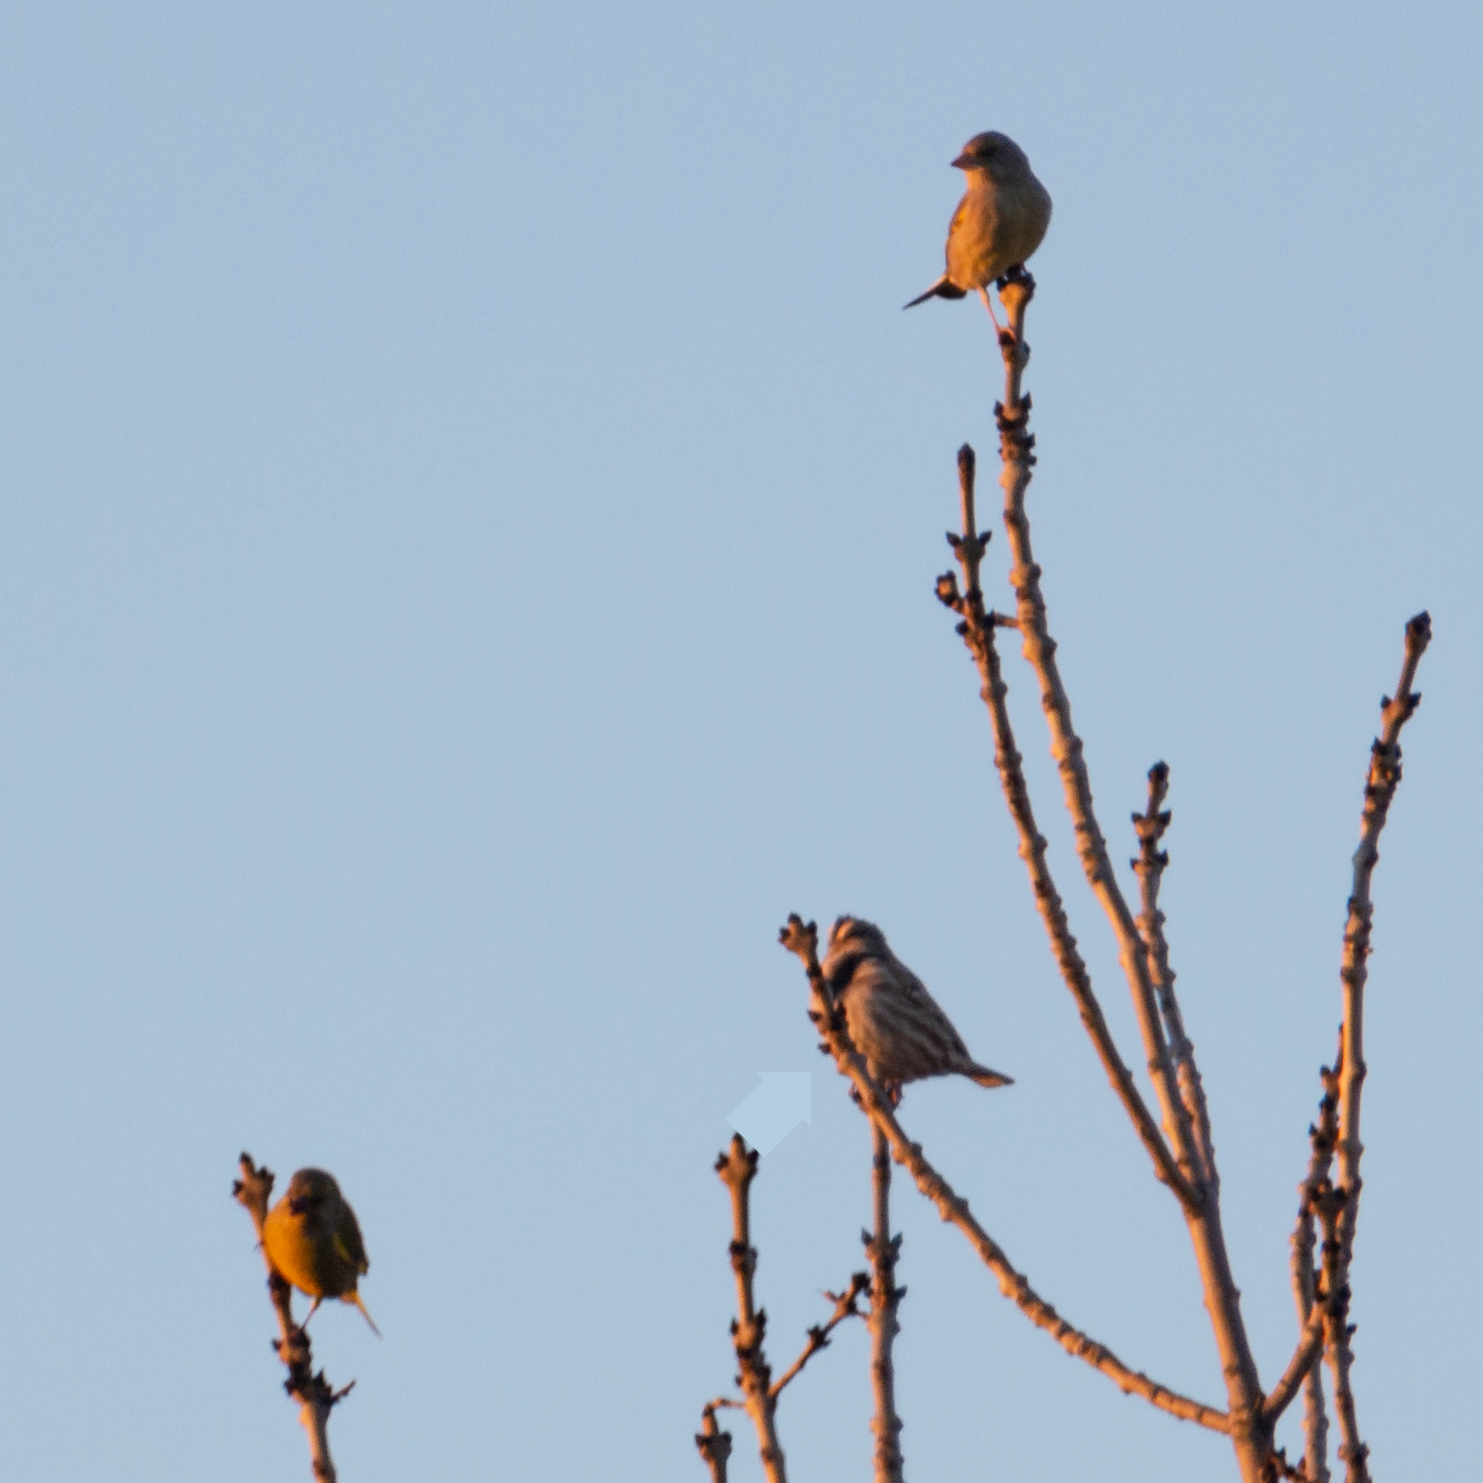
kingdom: Animalia
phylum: Chordata
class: Aves
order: Passeriformes
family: Passeridae
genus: Petronia
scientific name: Petronia petronia
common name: Rock sparrow
